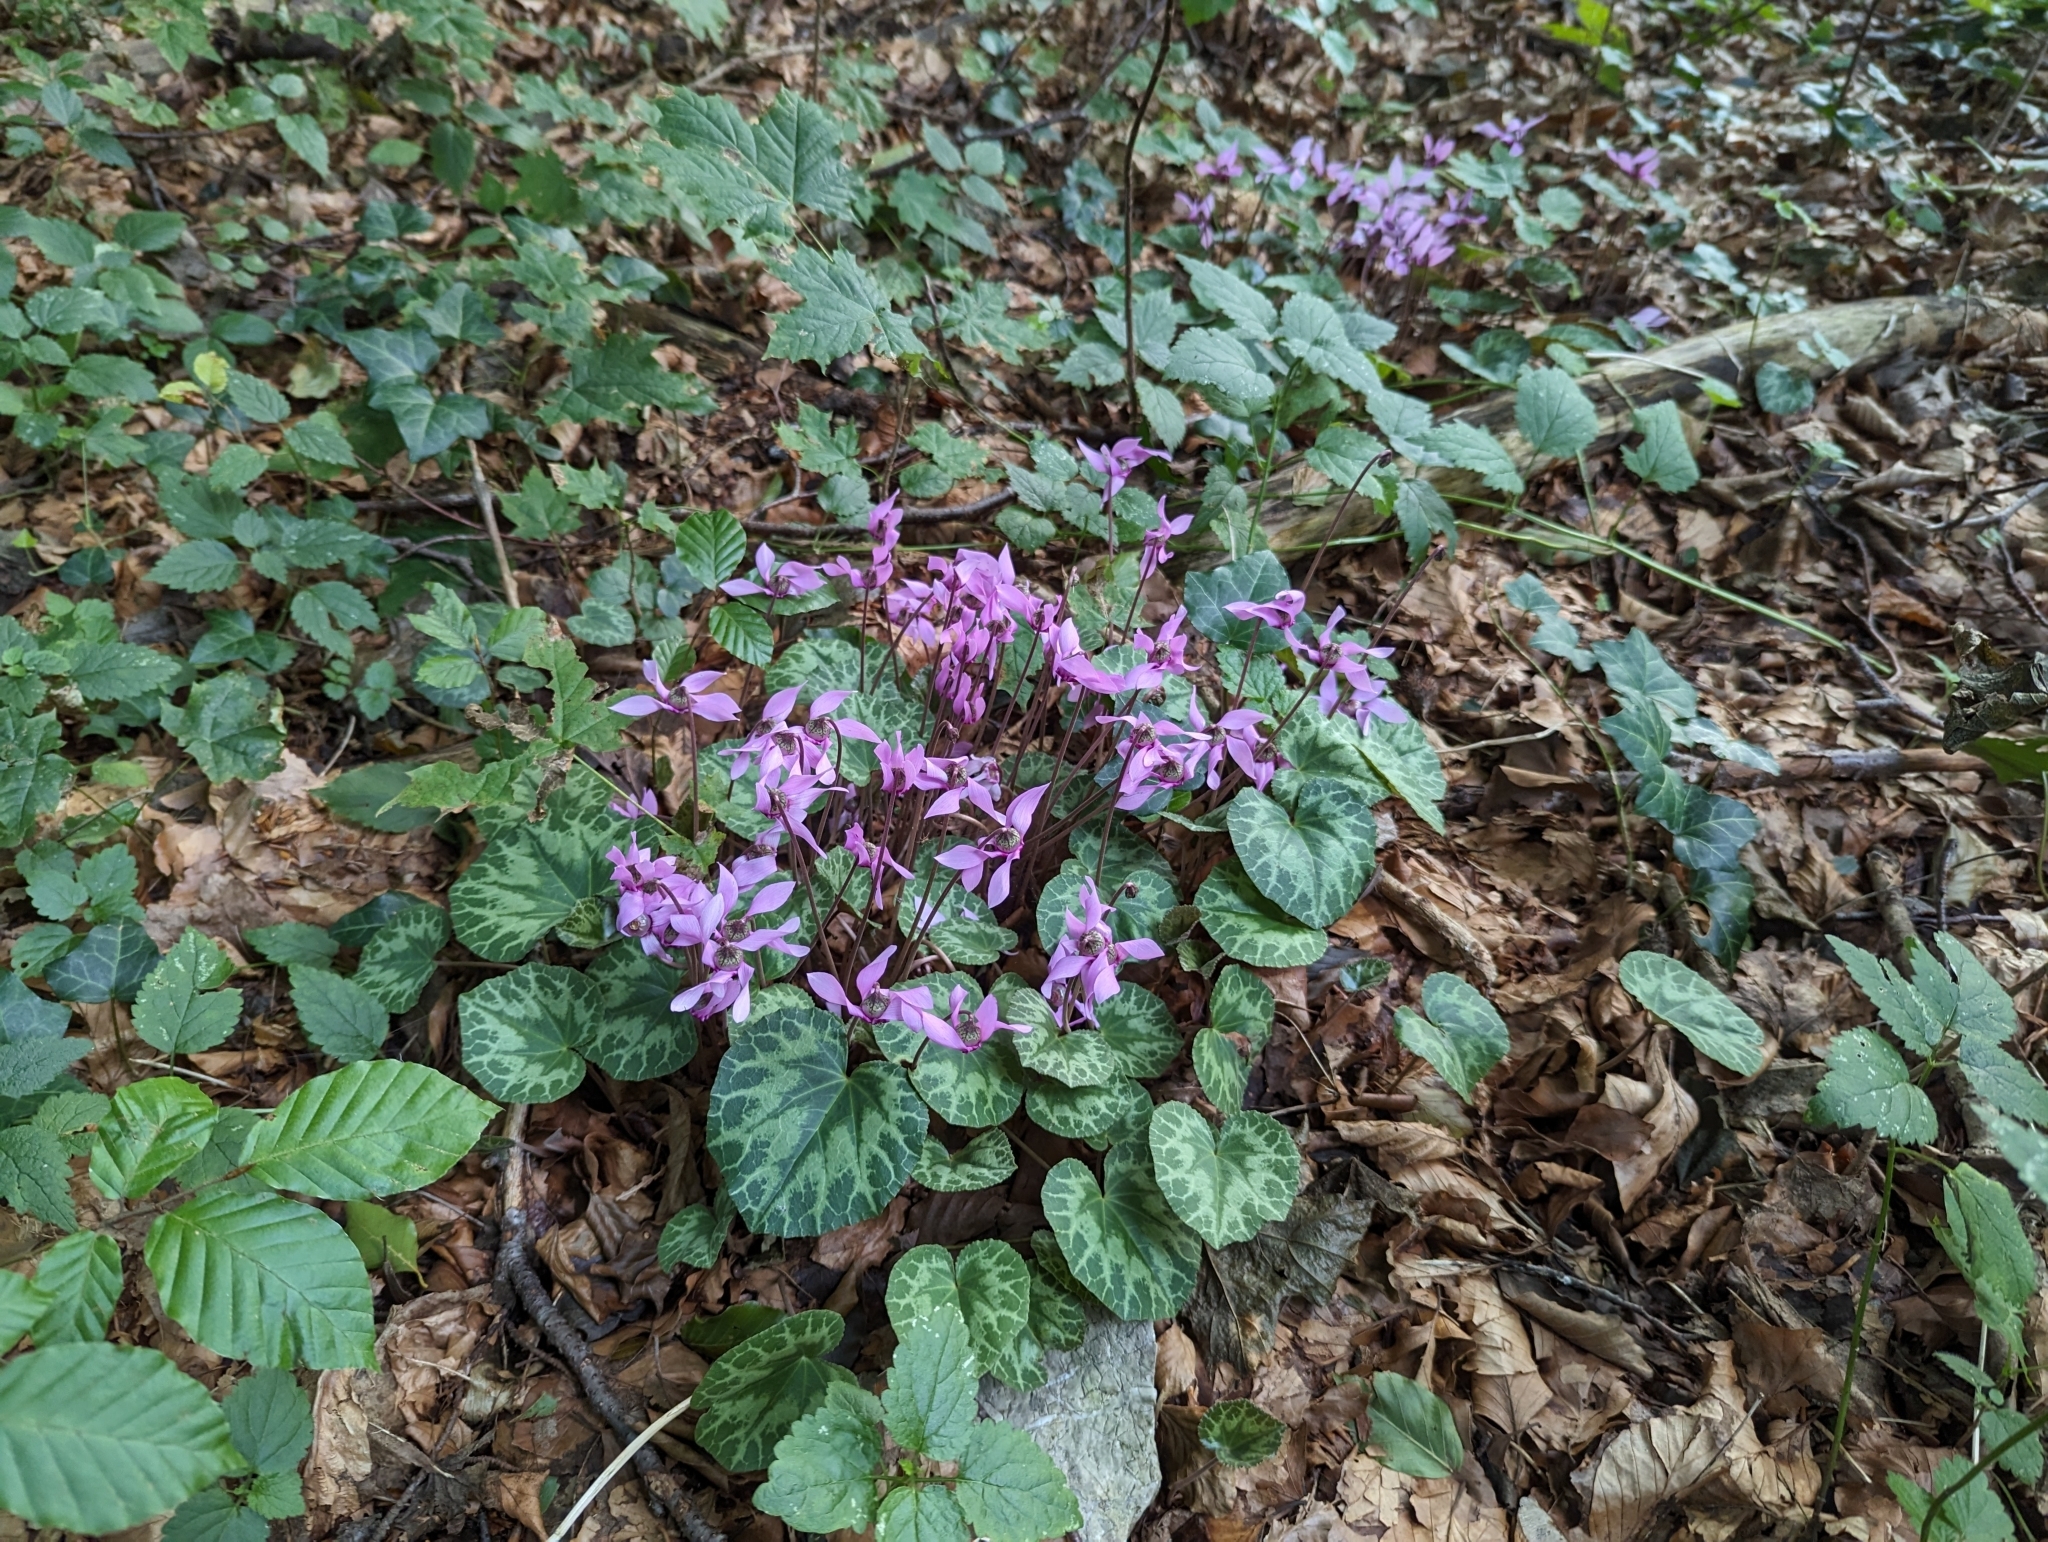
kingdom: Plantae
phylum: Tracheophyta
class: Magnoliopsida
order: Ericales
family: Primulaceae
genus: Cyclamen
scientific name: Cyclamen purpurascens
